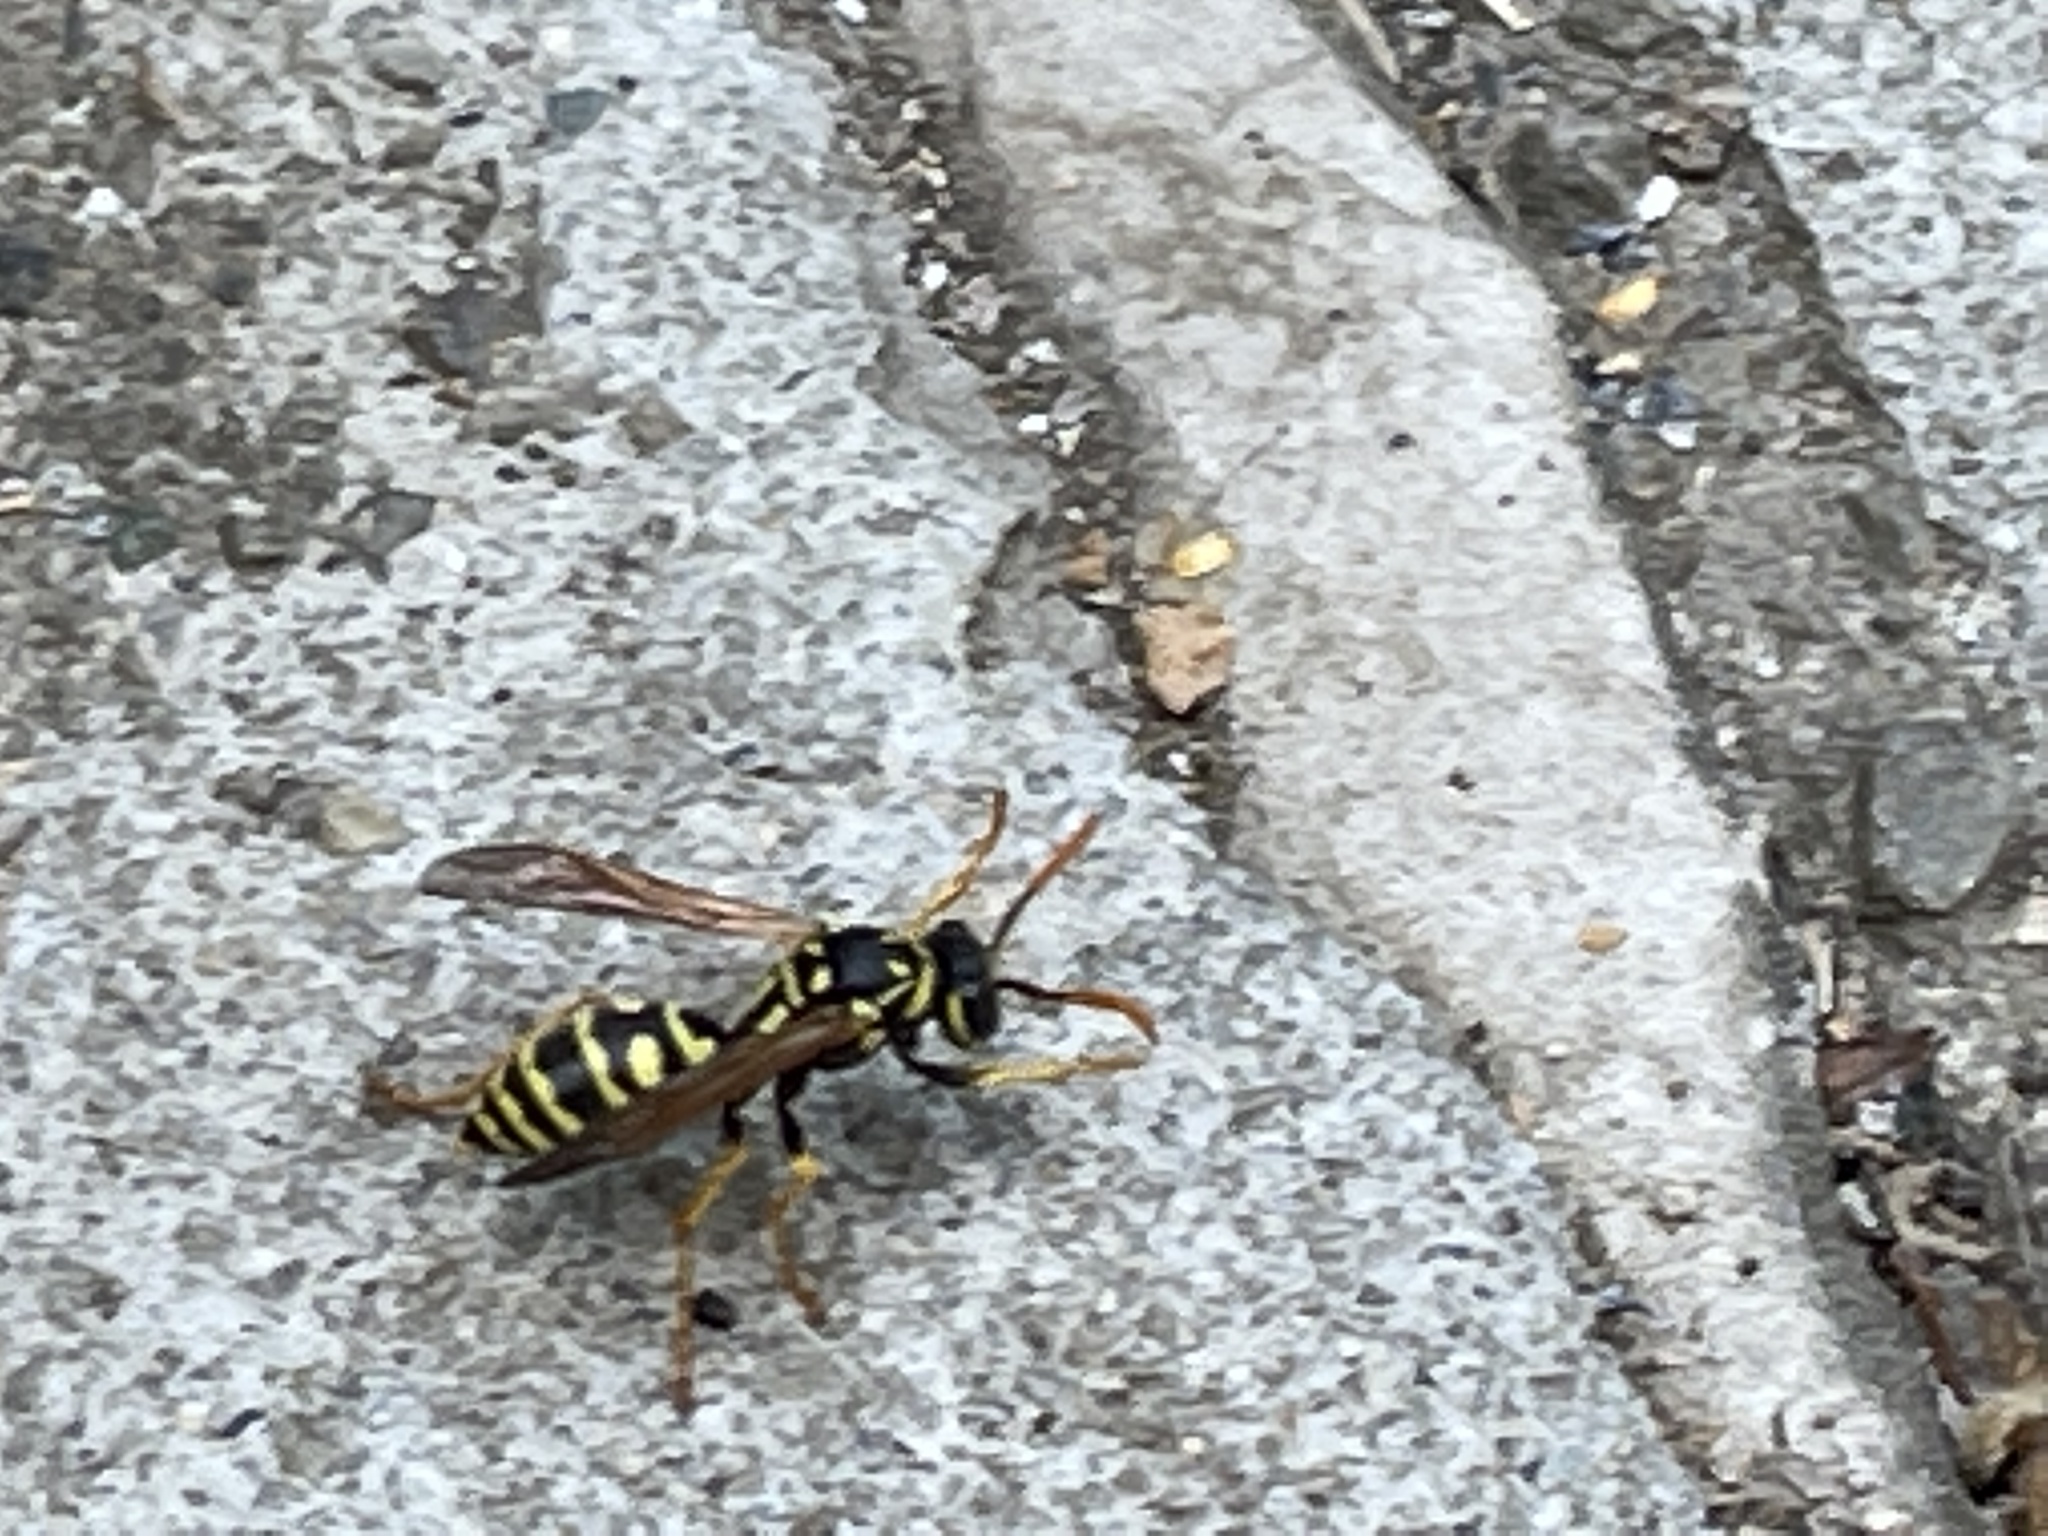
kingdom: Animalia
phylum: Arthropoda
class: Insecta
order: Hymenoptera
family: Eumenidae
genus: Polistes
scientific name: Polistes dominula
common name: Paper wasp
